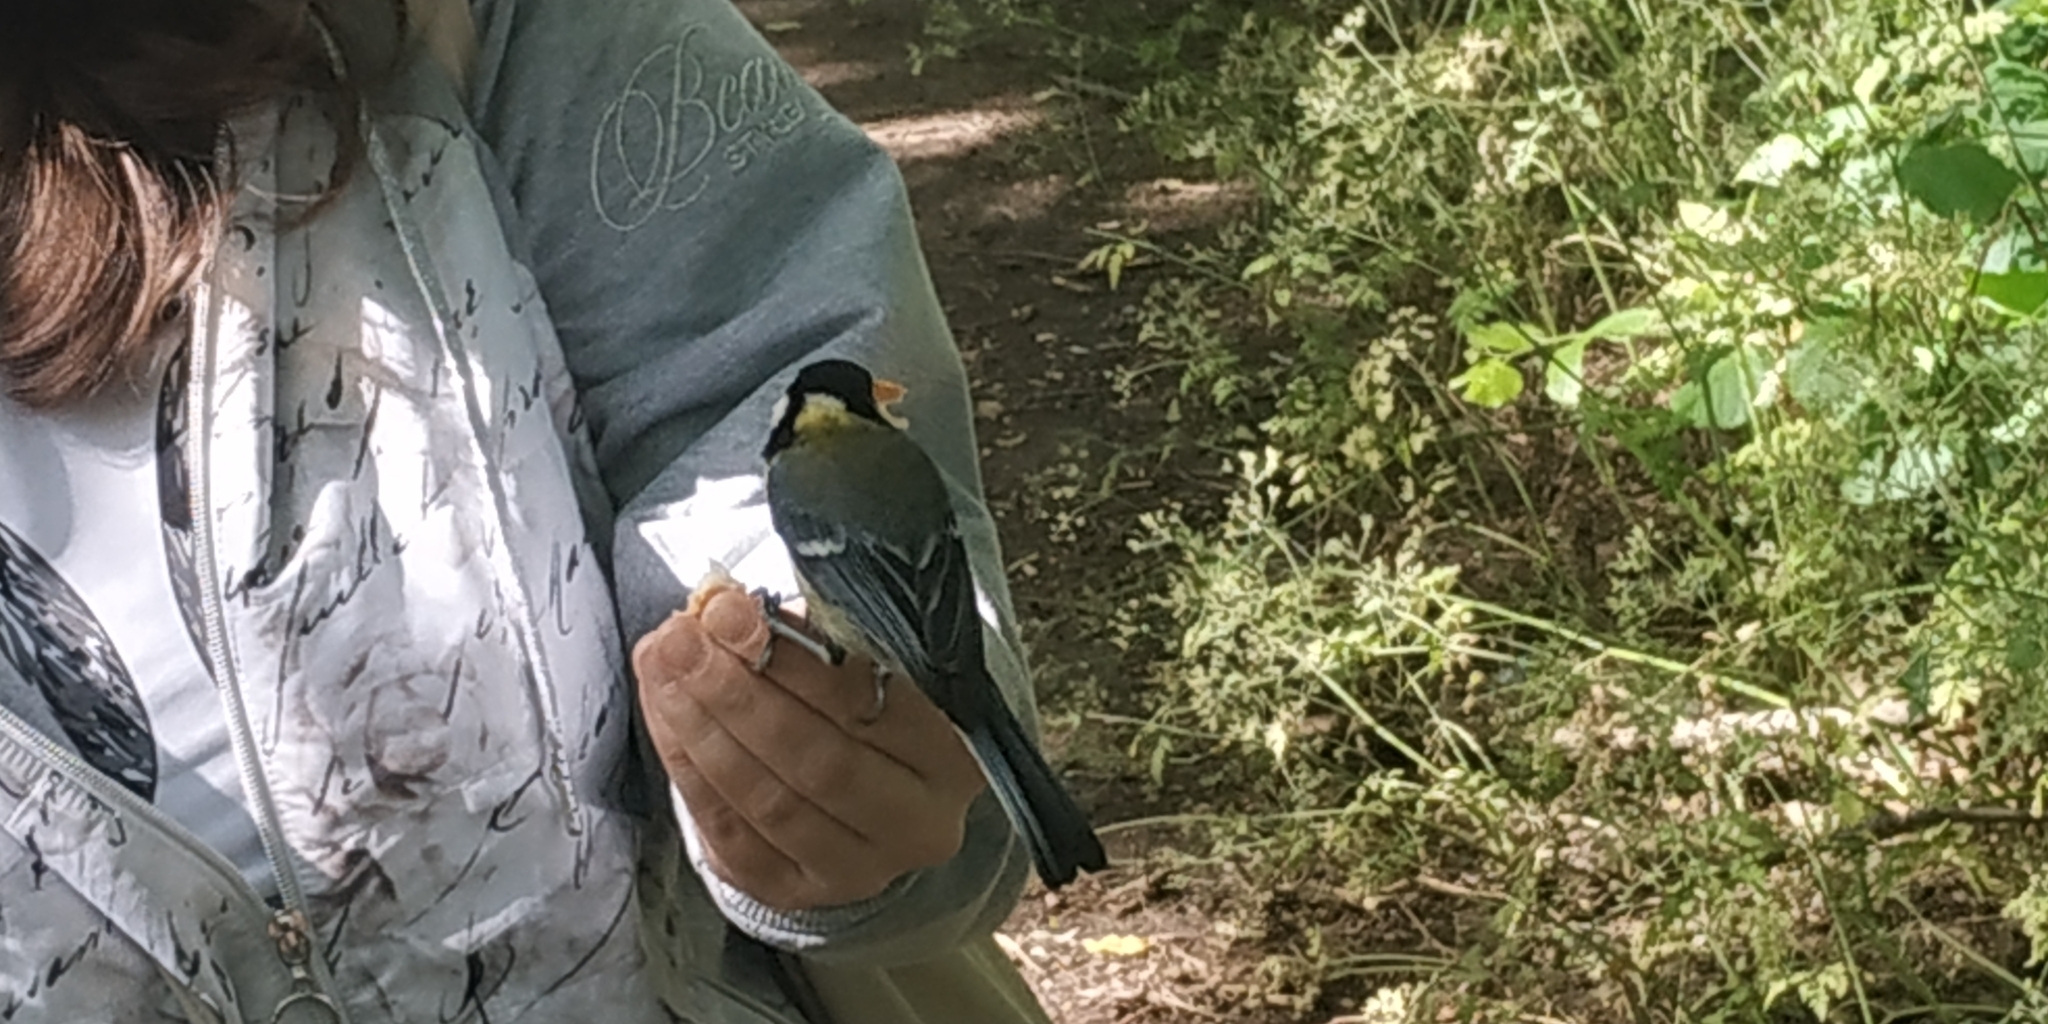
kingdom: Animalia
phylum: Chordata
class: Aves
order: Passeriformes
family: Paridae
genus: Parus
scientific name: Parus major
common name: Great tit
